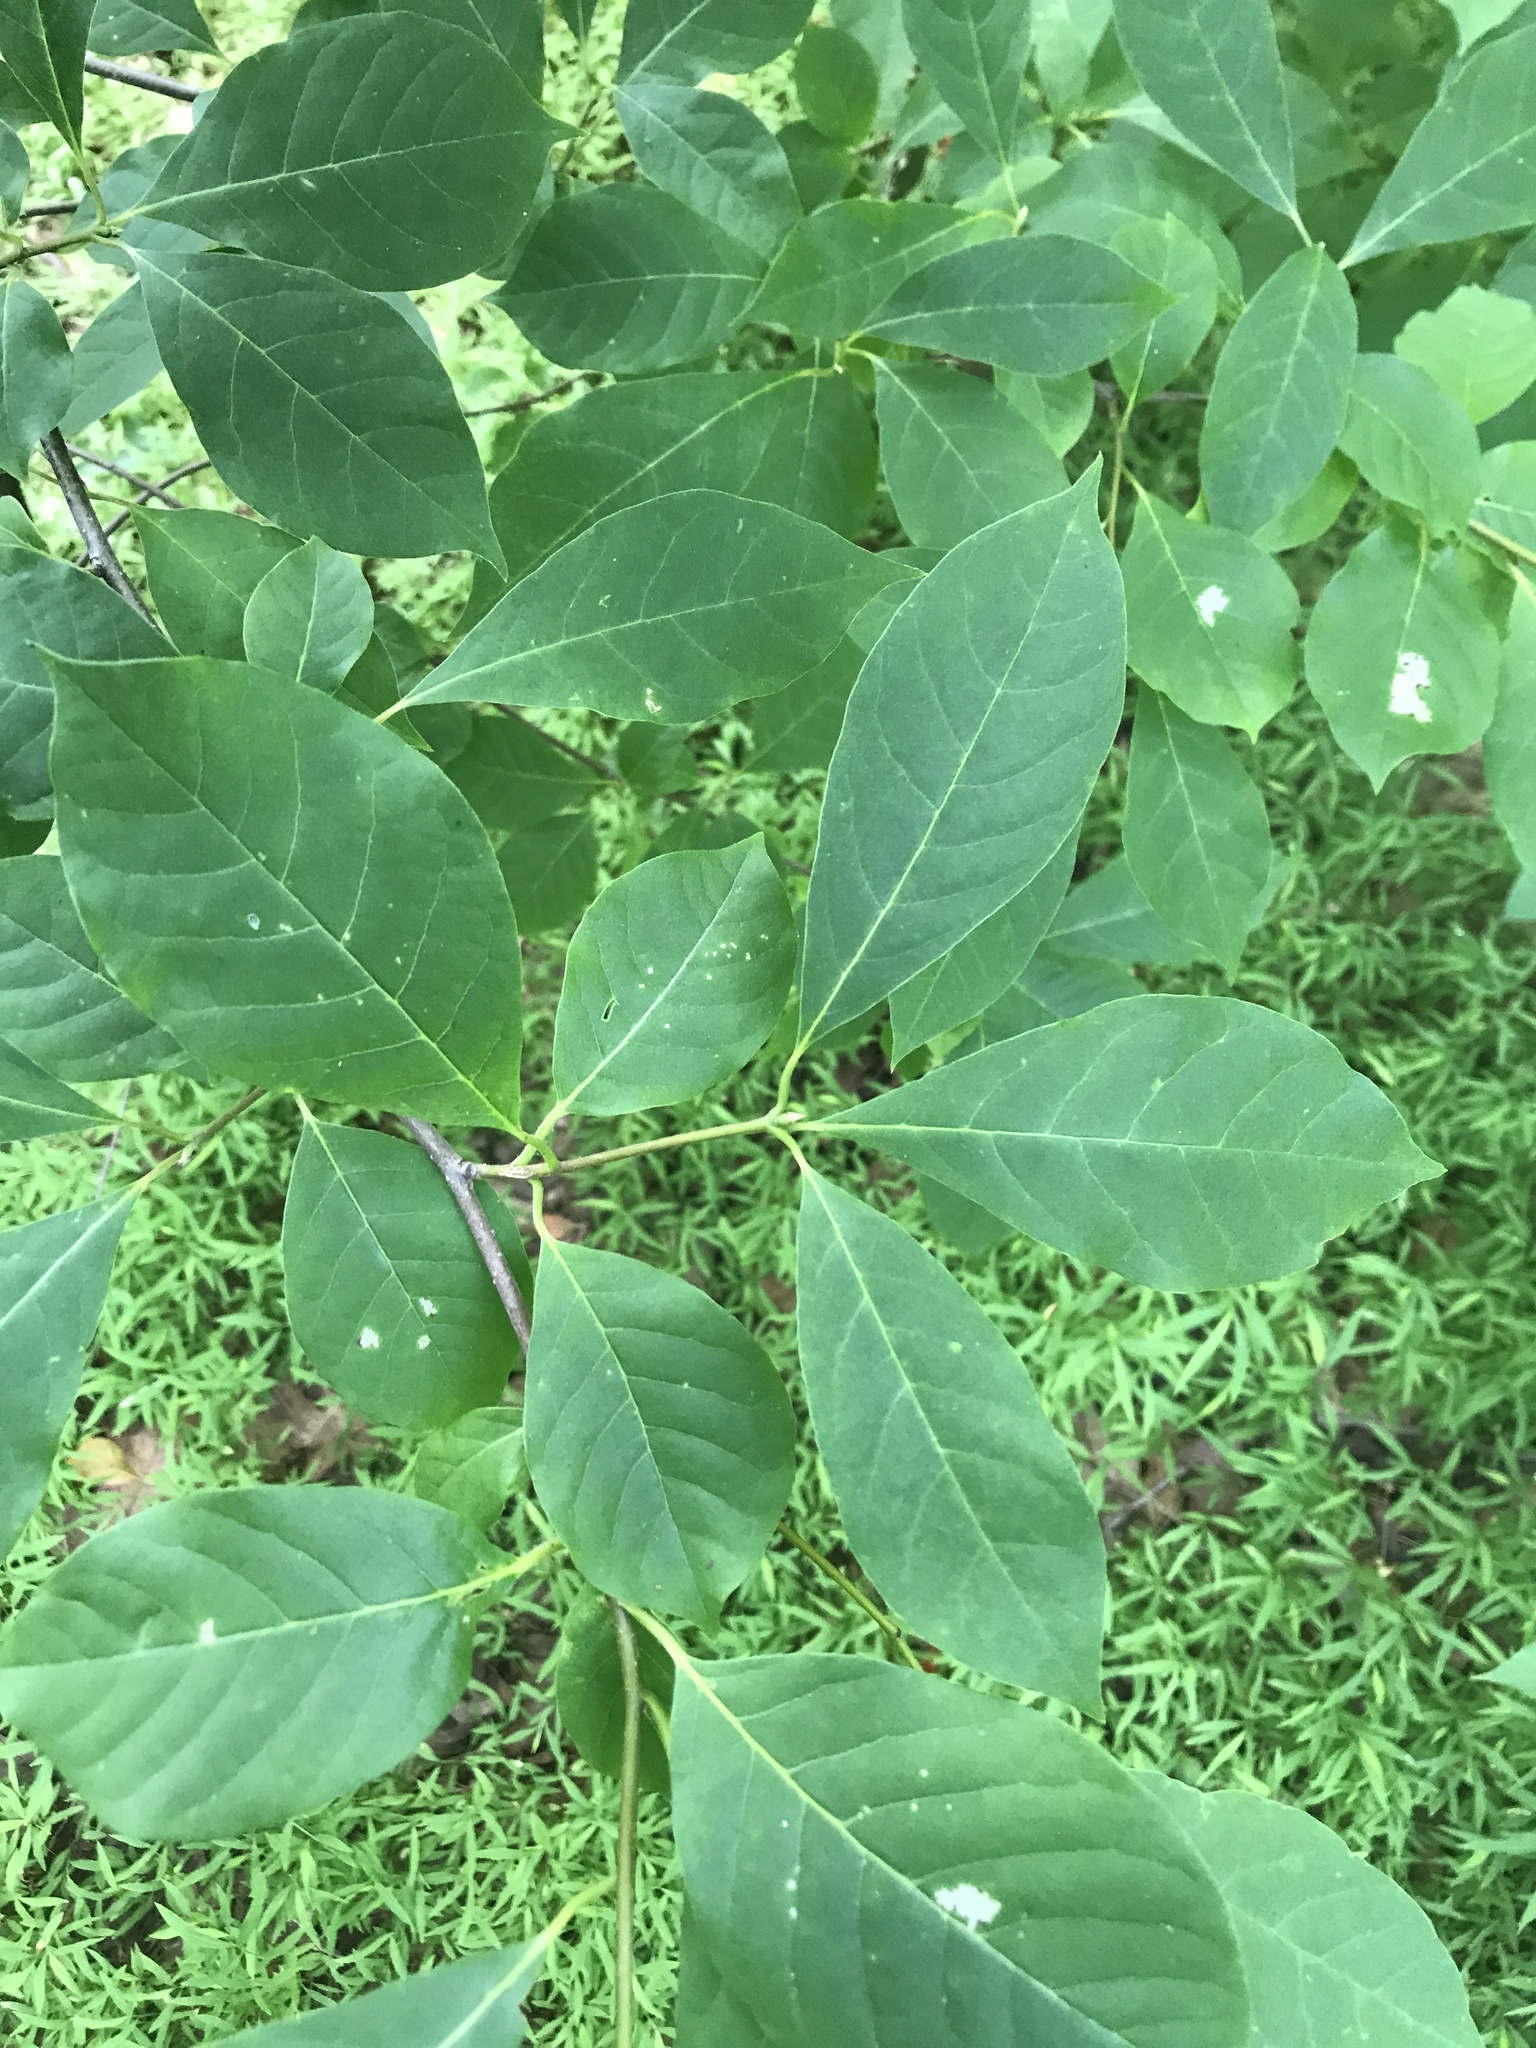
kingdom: Plantae
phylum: Tracheophyta
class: Magnoliopsida
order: Cornales
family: Nyssaceae
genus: Nyssa
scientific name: Nyssa sylvatica
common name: Black tupelo
